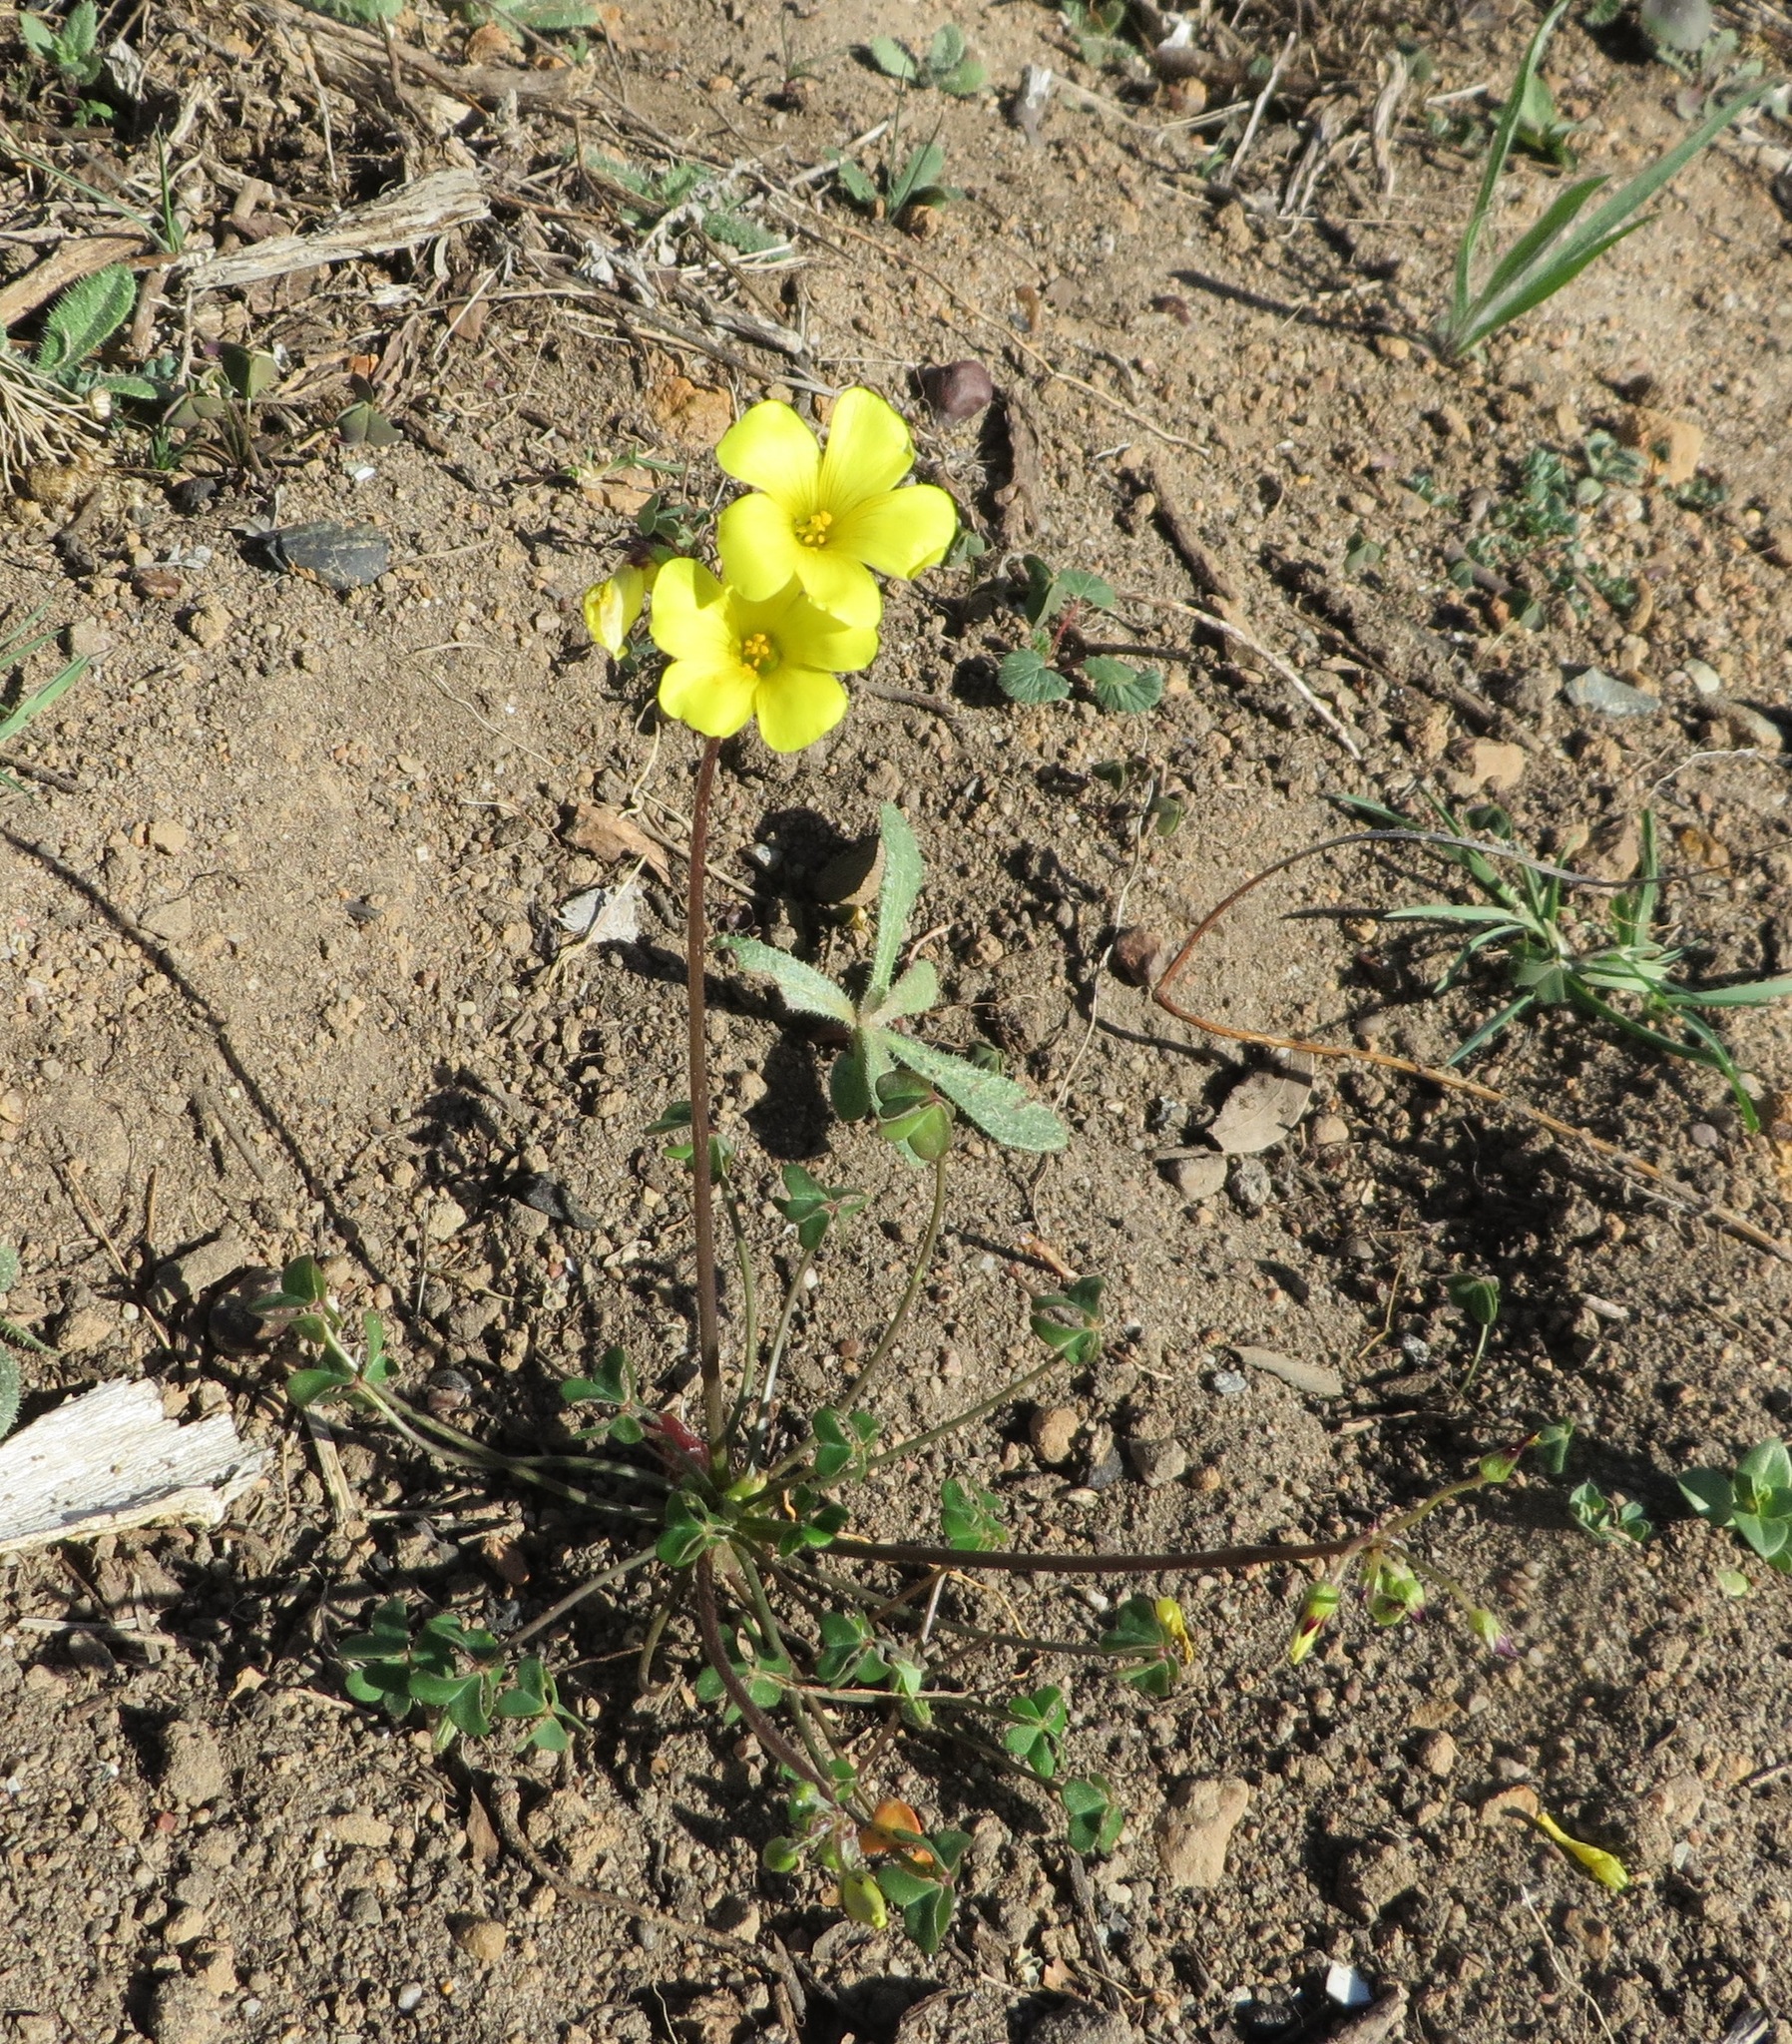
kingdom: Plantae
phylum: Tracheophyta
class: Magnoliopsida
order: Oxalidales
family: Oxalidaceae
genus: Oxalis
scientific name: Oxalis pes-caprae
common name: Bermuda-buttercup
